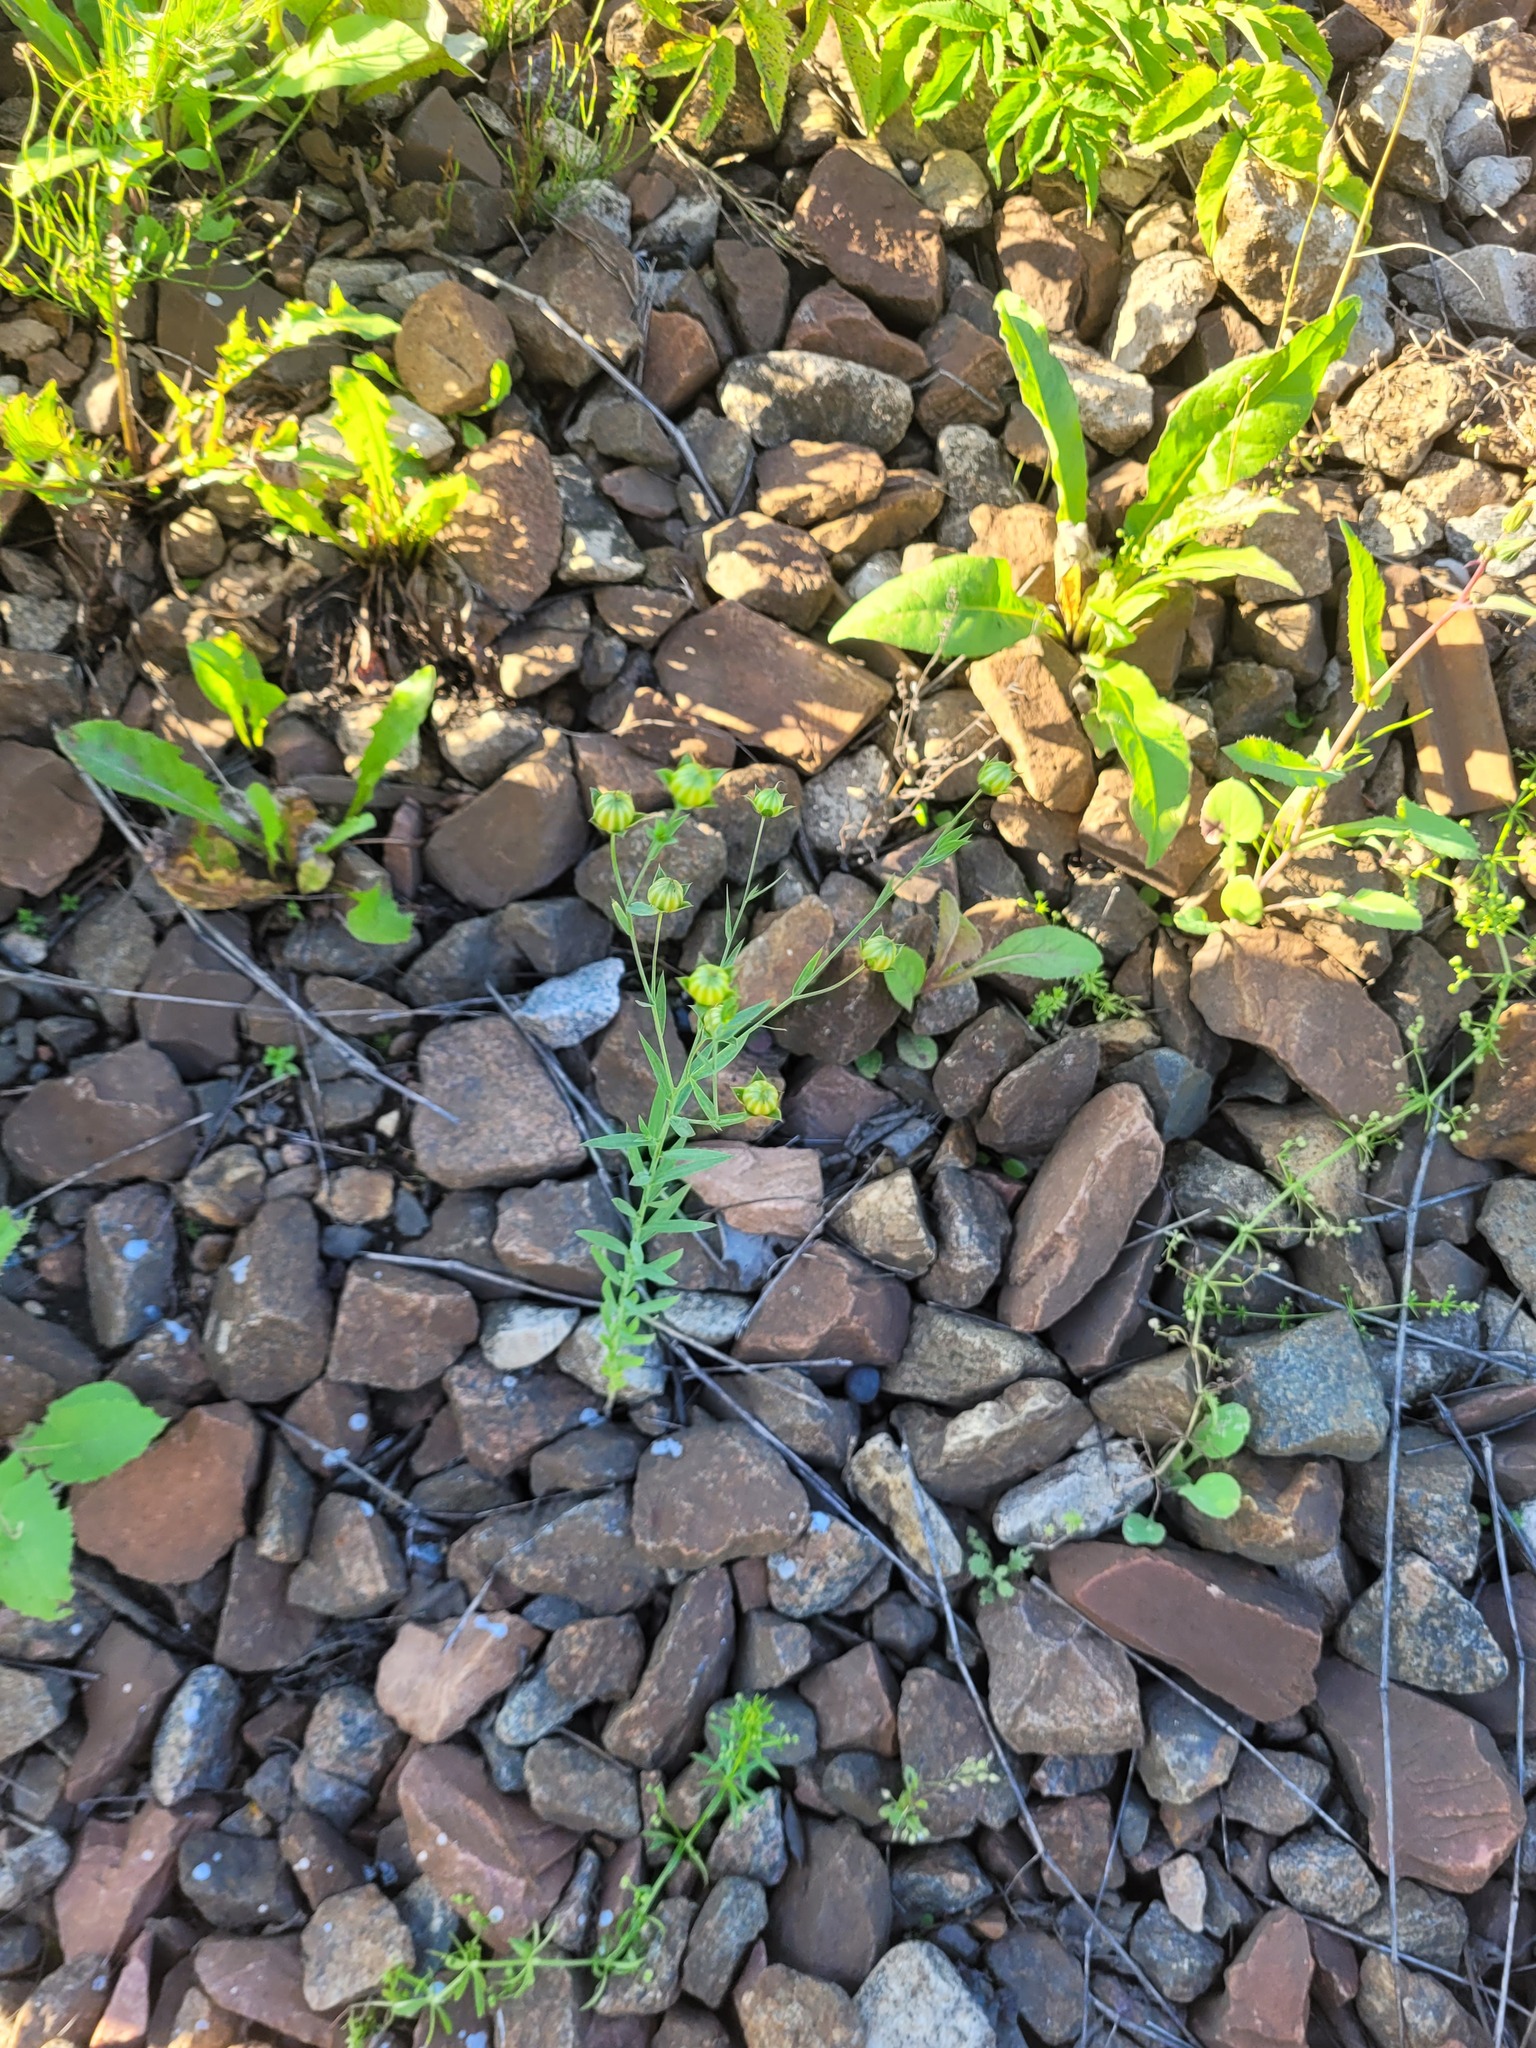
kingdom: Plantae
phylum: Tracheophyta
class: Magnoliopsida
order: Malpighiales
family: Linaceae
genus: Linum
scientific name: Linum usitatissimum
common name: Flax
